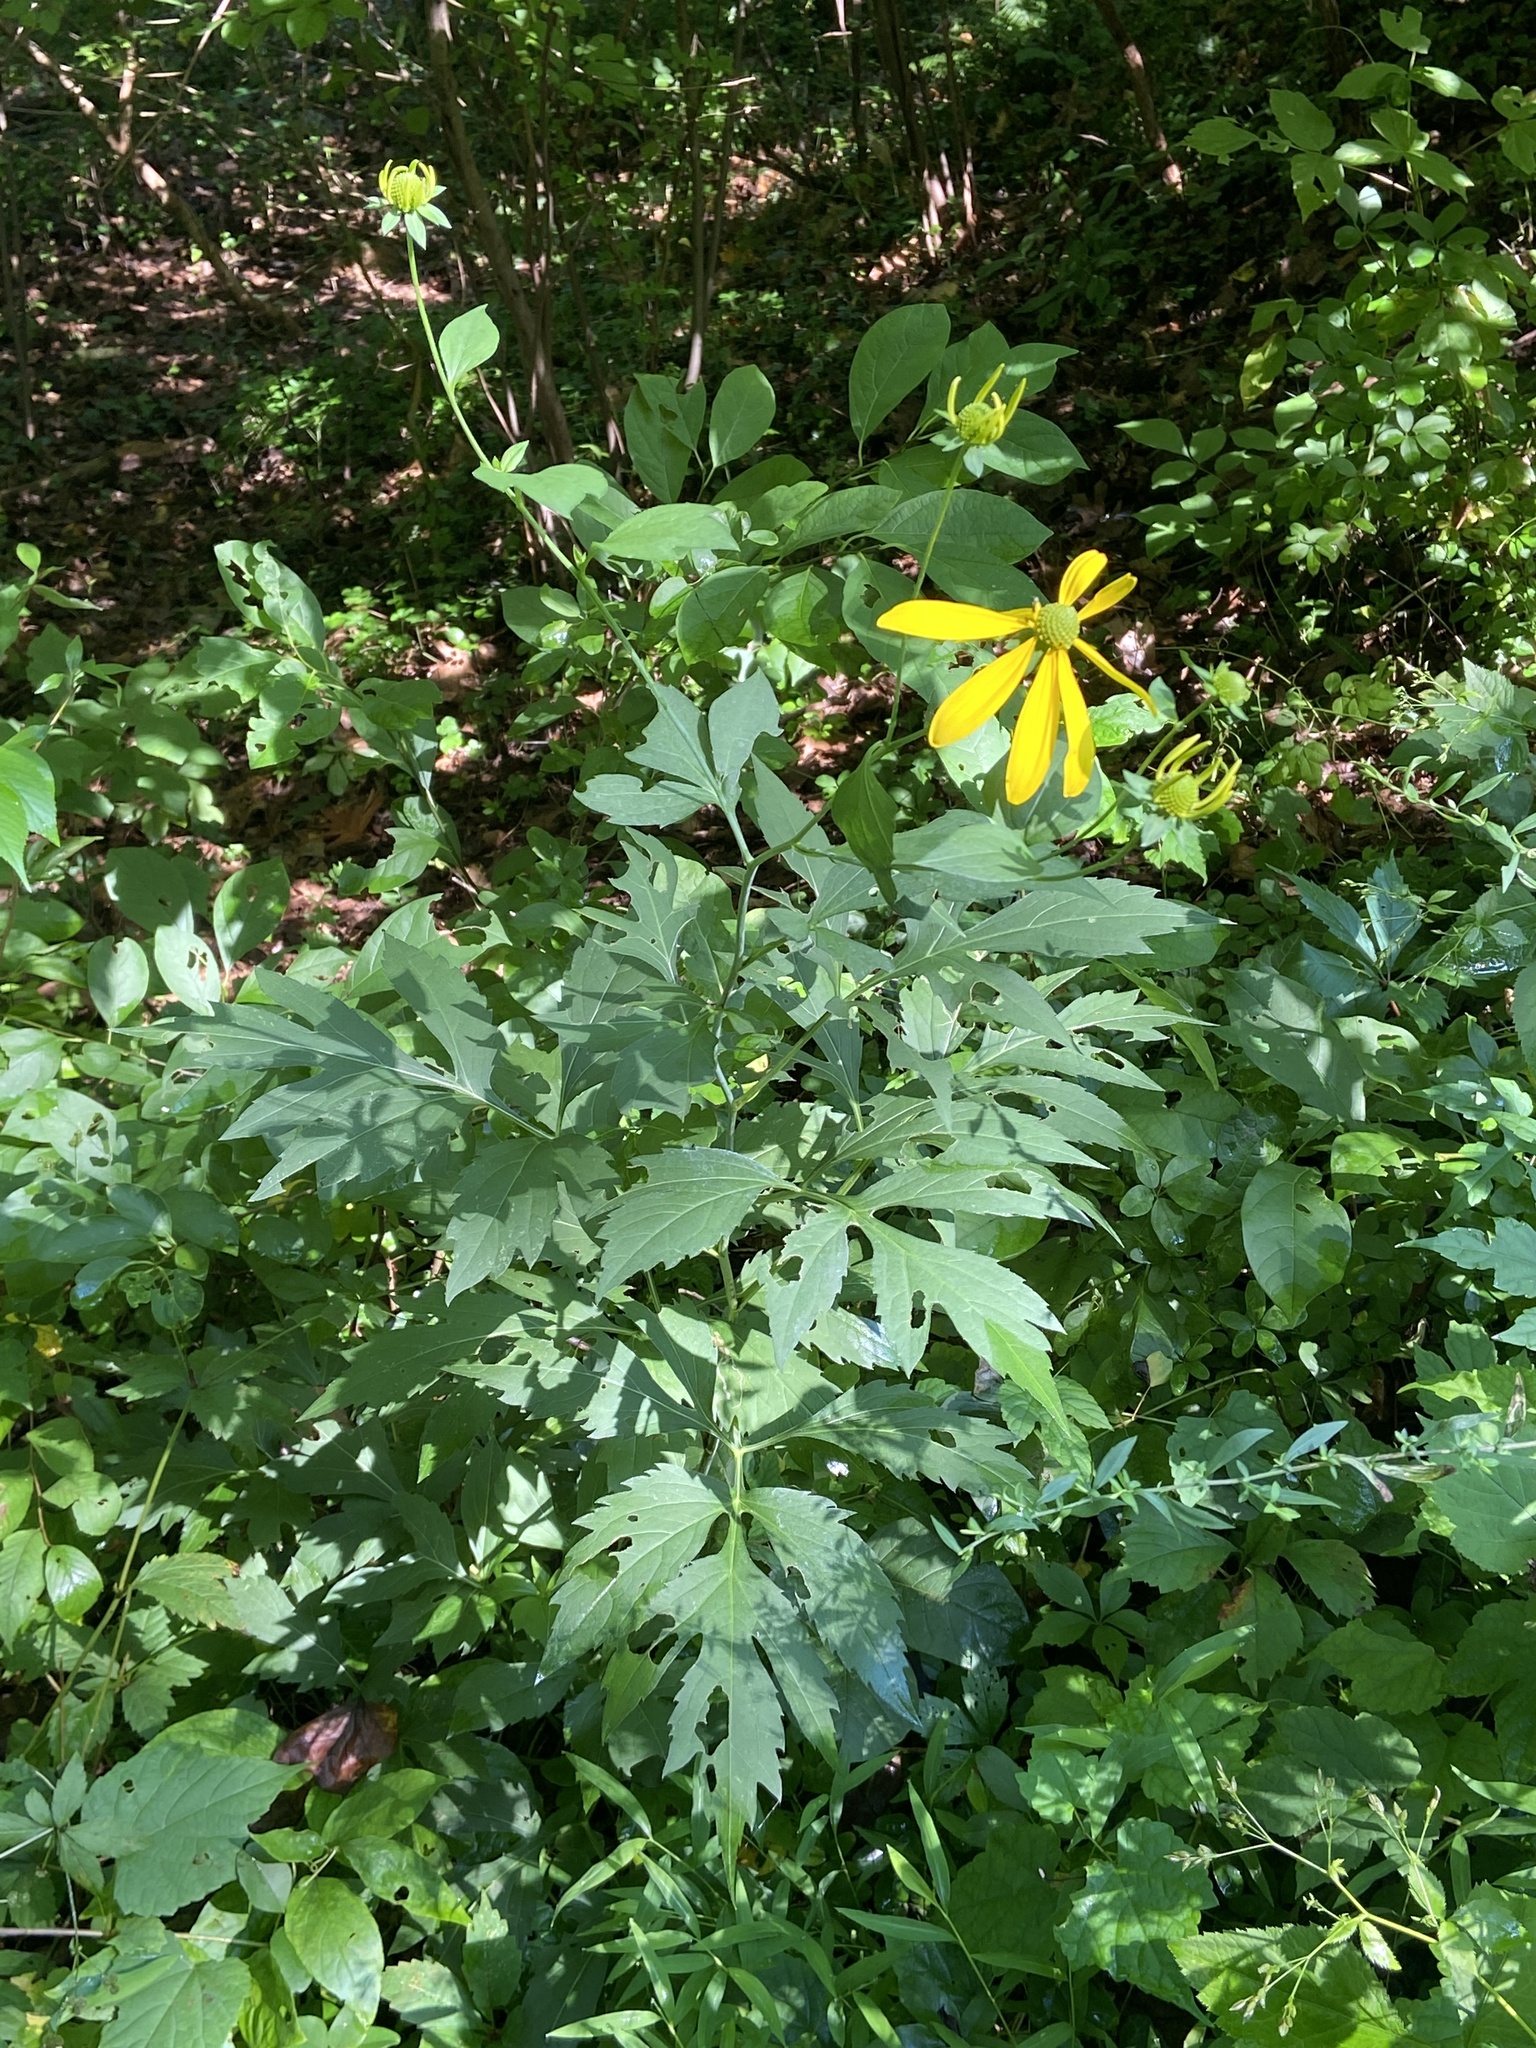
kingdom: Plantae
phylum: Tracheophyta
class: Magnoliopsida
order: Asterales
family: Asteraceae
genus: Rudbeckia
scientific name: Rudbeckia laciniata
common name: Coneflower
